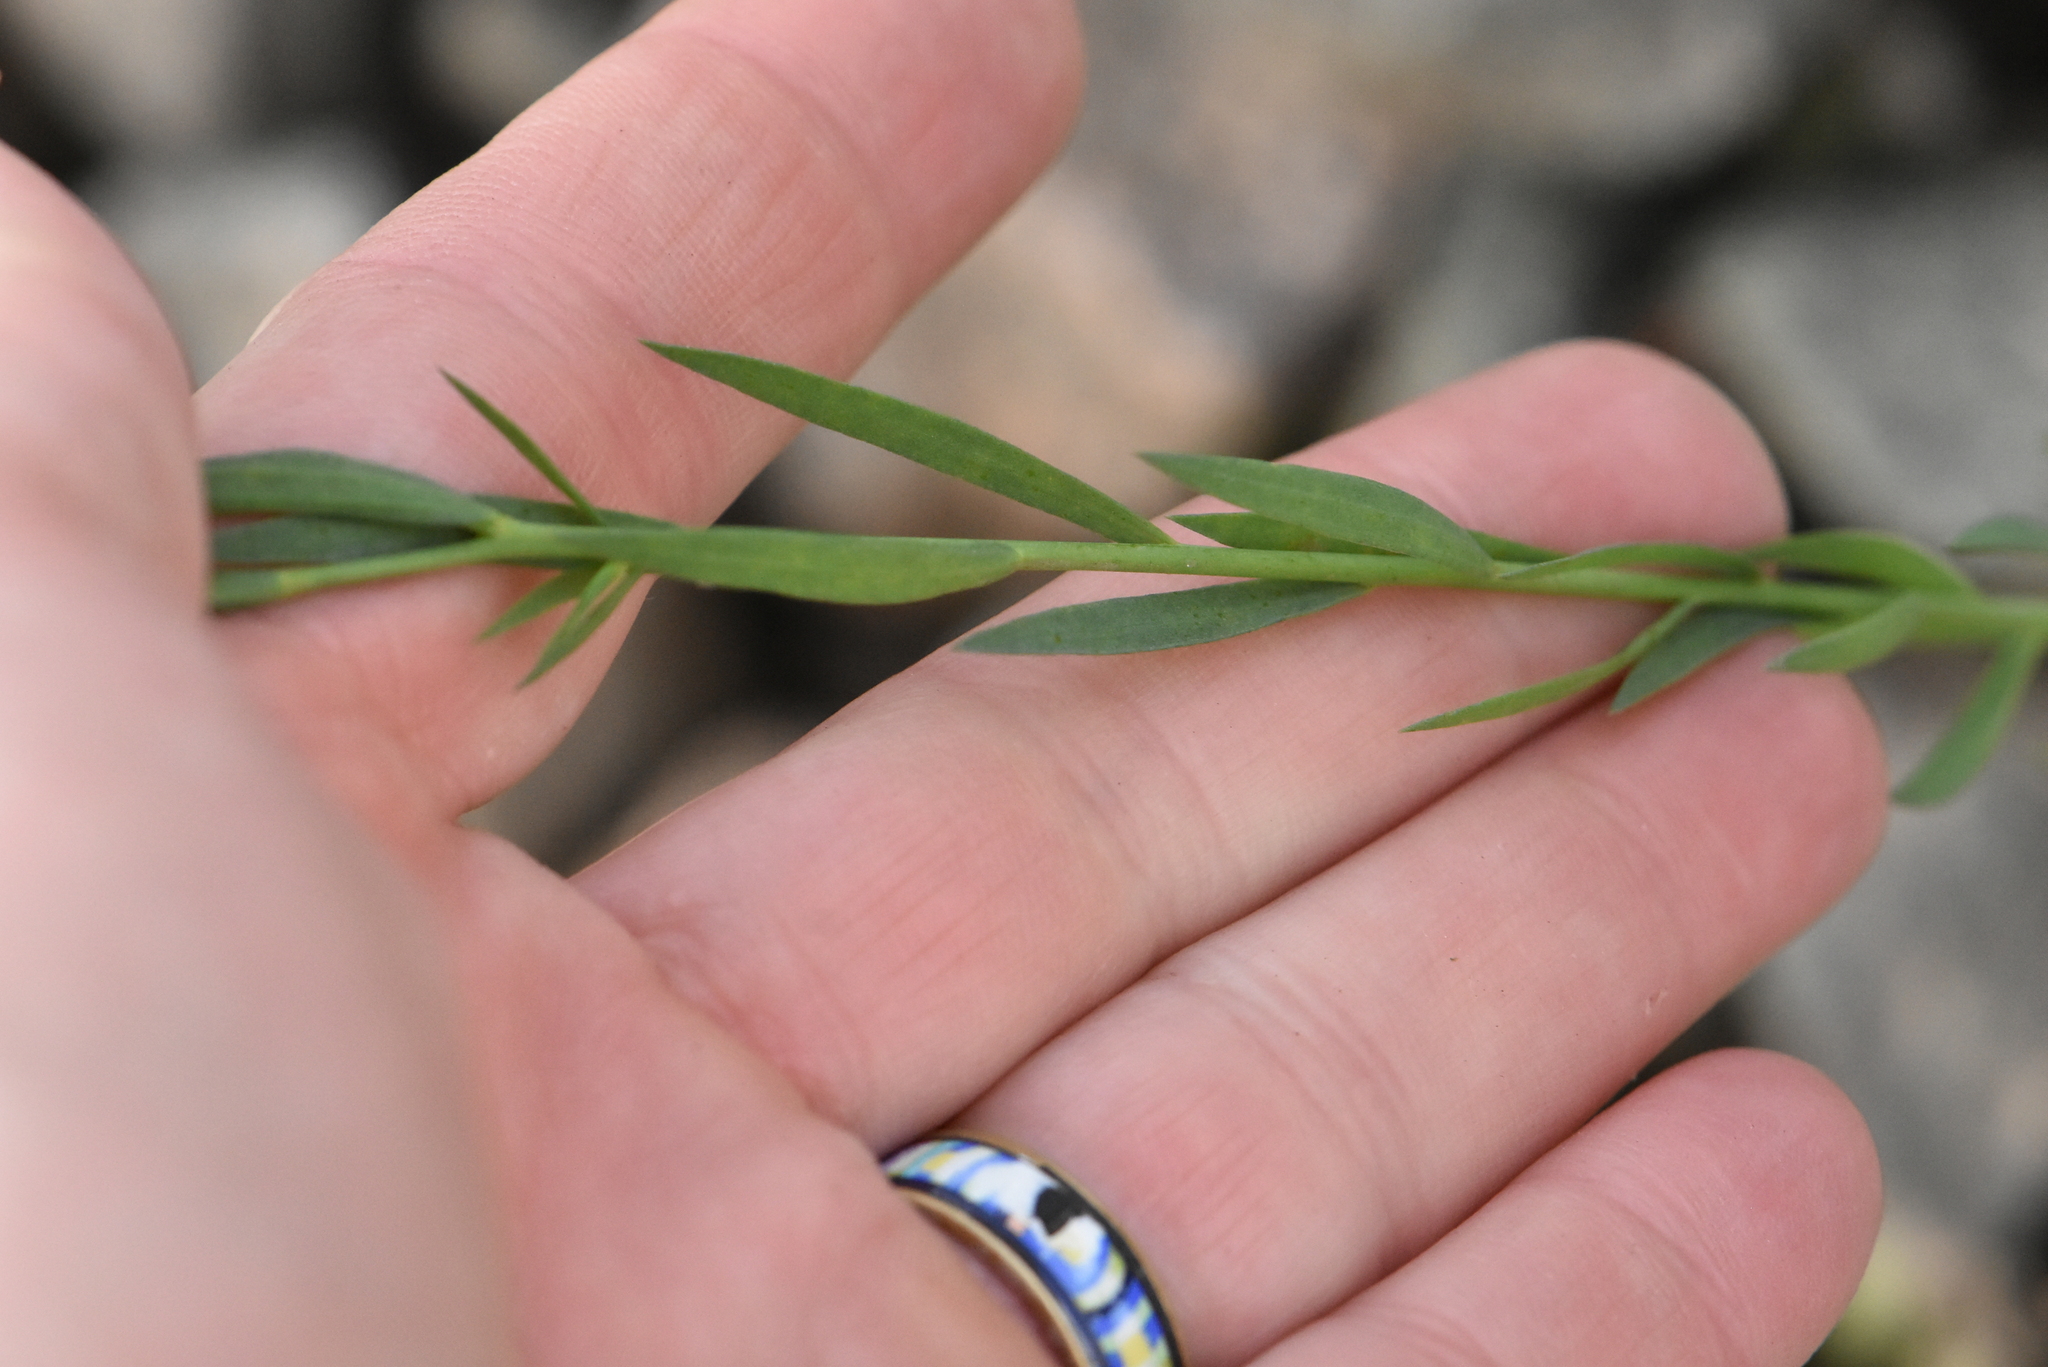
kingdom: Plantae
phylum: Tracheophyta
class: Magnoliopsida
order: Malpighiales
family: Linaceae
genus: Linum
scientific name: Linum usitatissimum
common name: Flax
